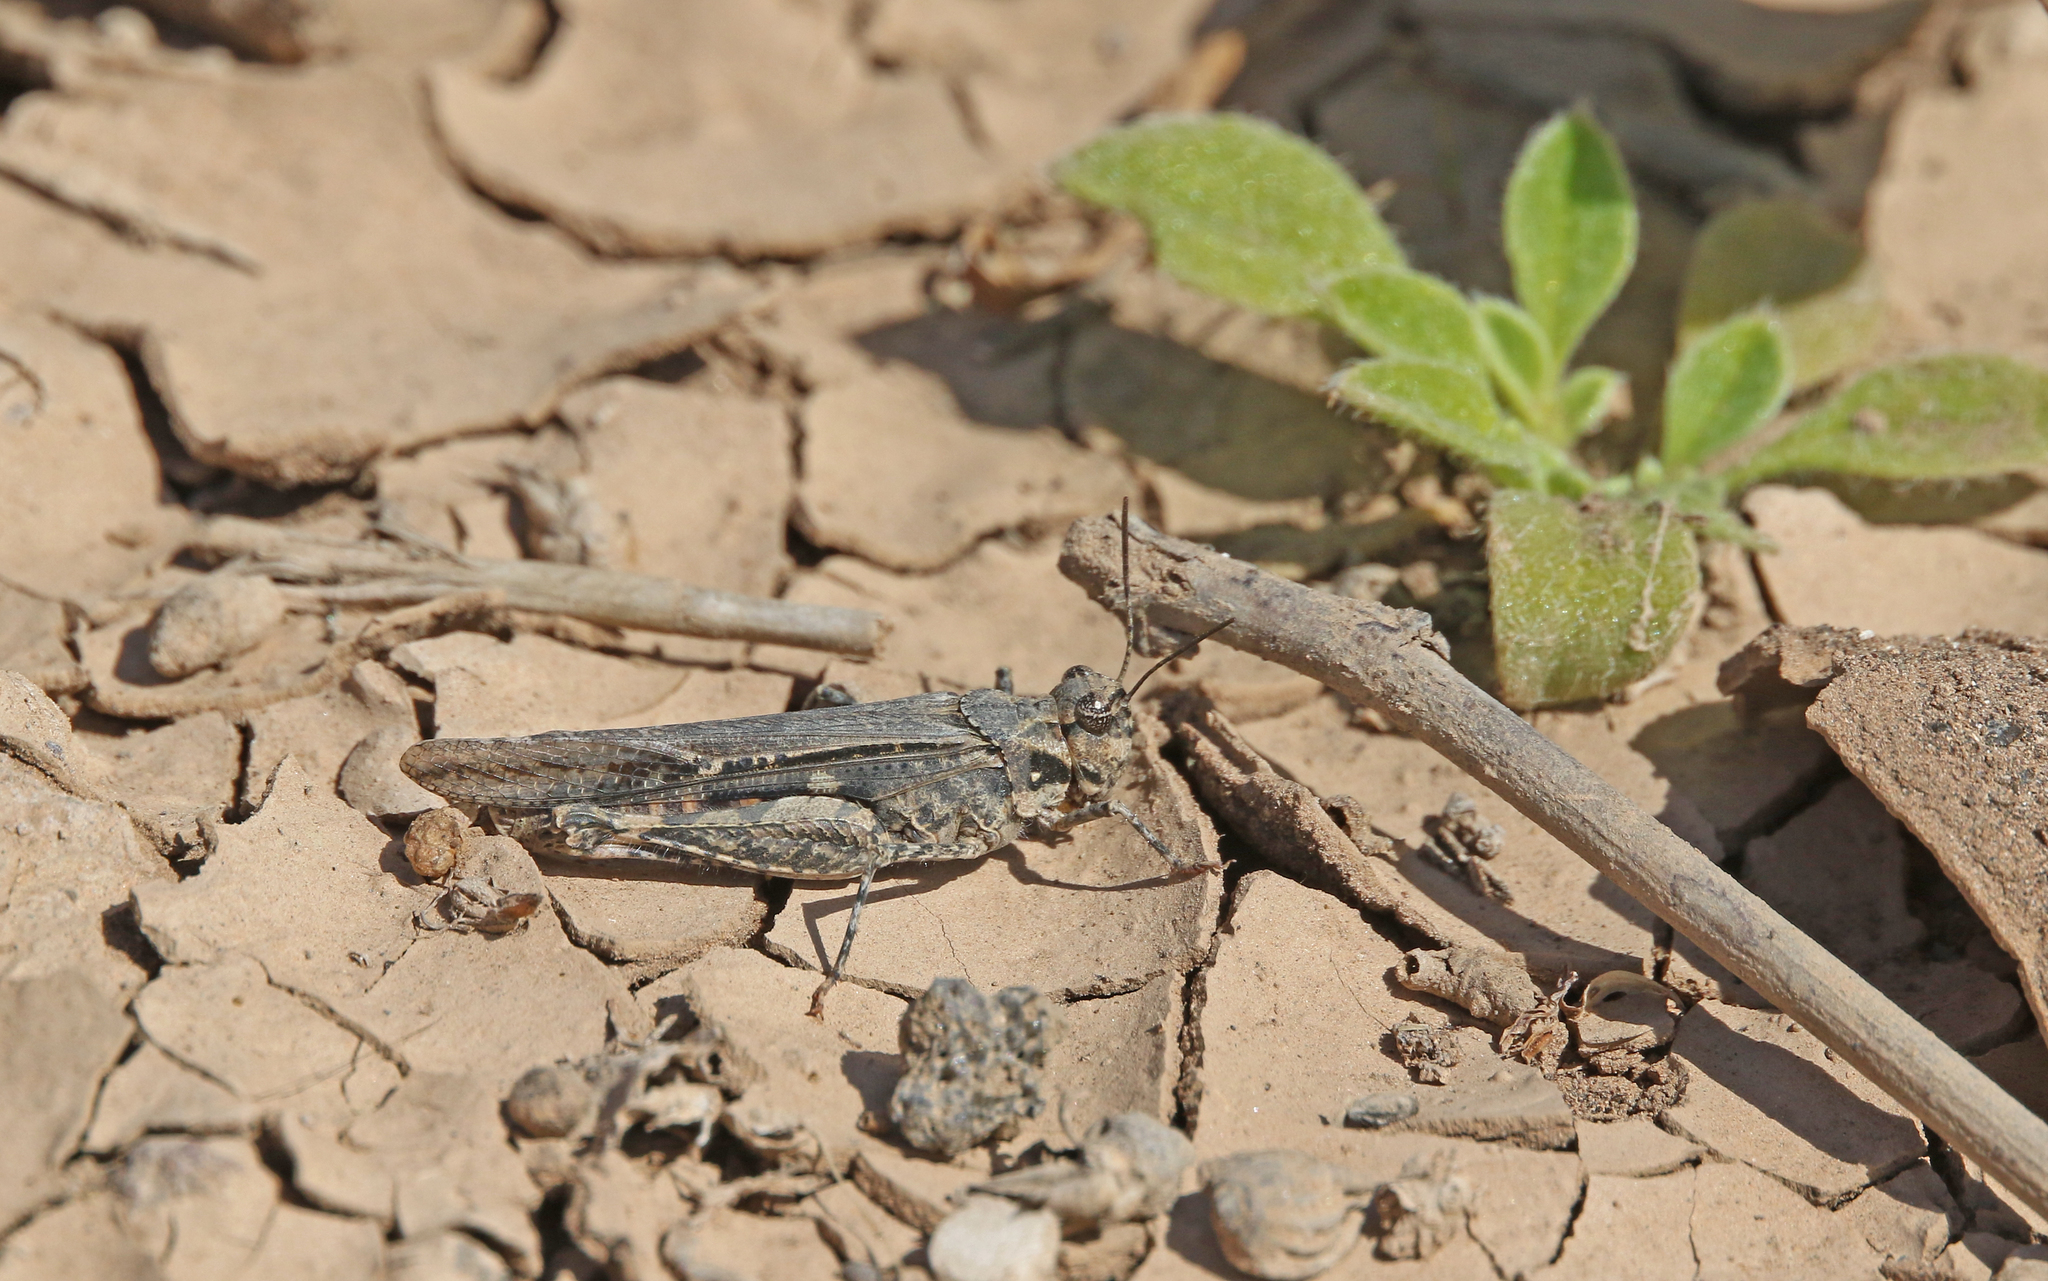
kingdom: Animalia
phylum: Arthropoda
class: Insecta
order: Orthoptera
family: Acrididae
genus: Acrotylus
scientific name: Acrotylus insubricus
